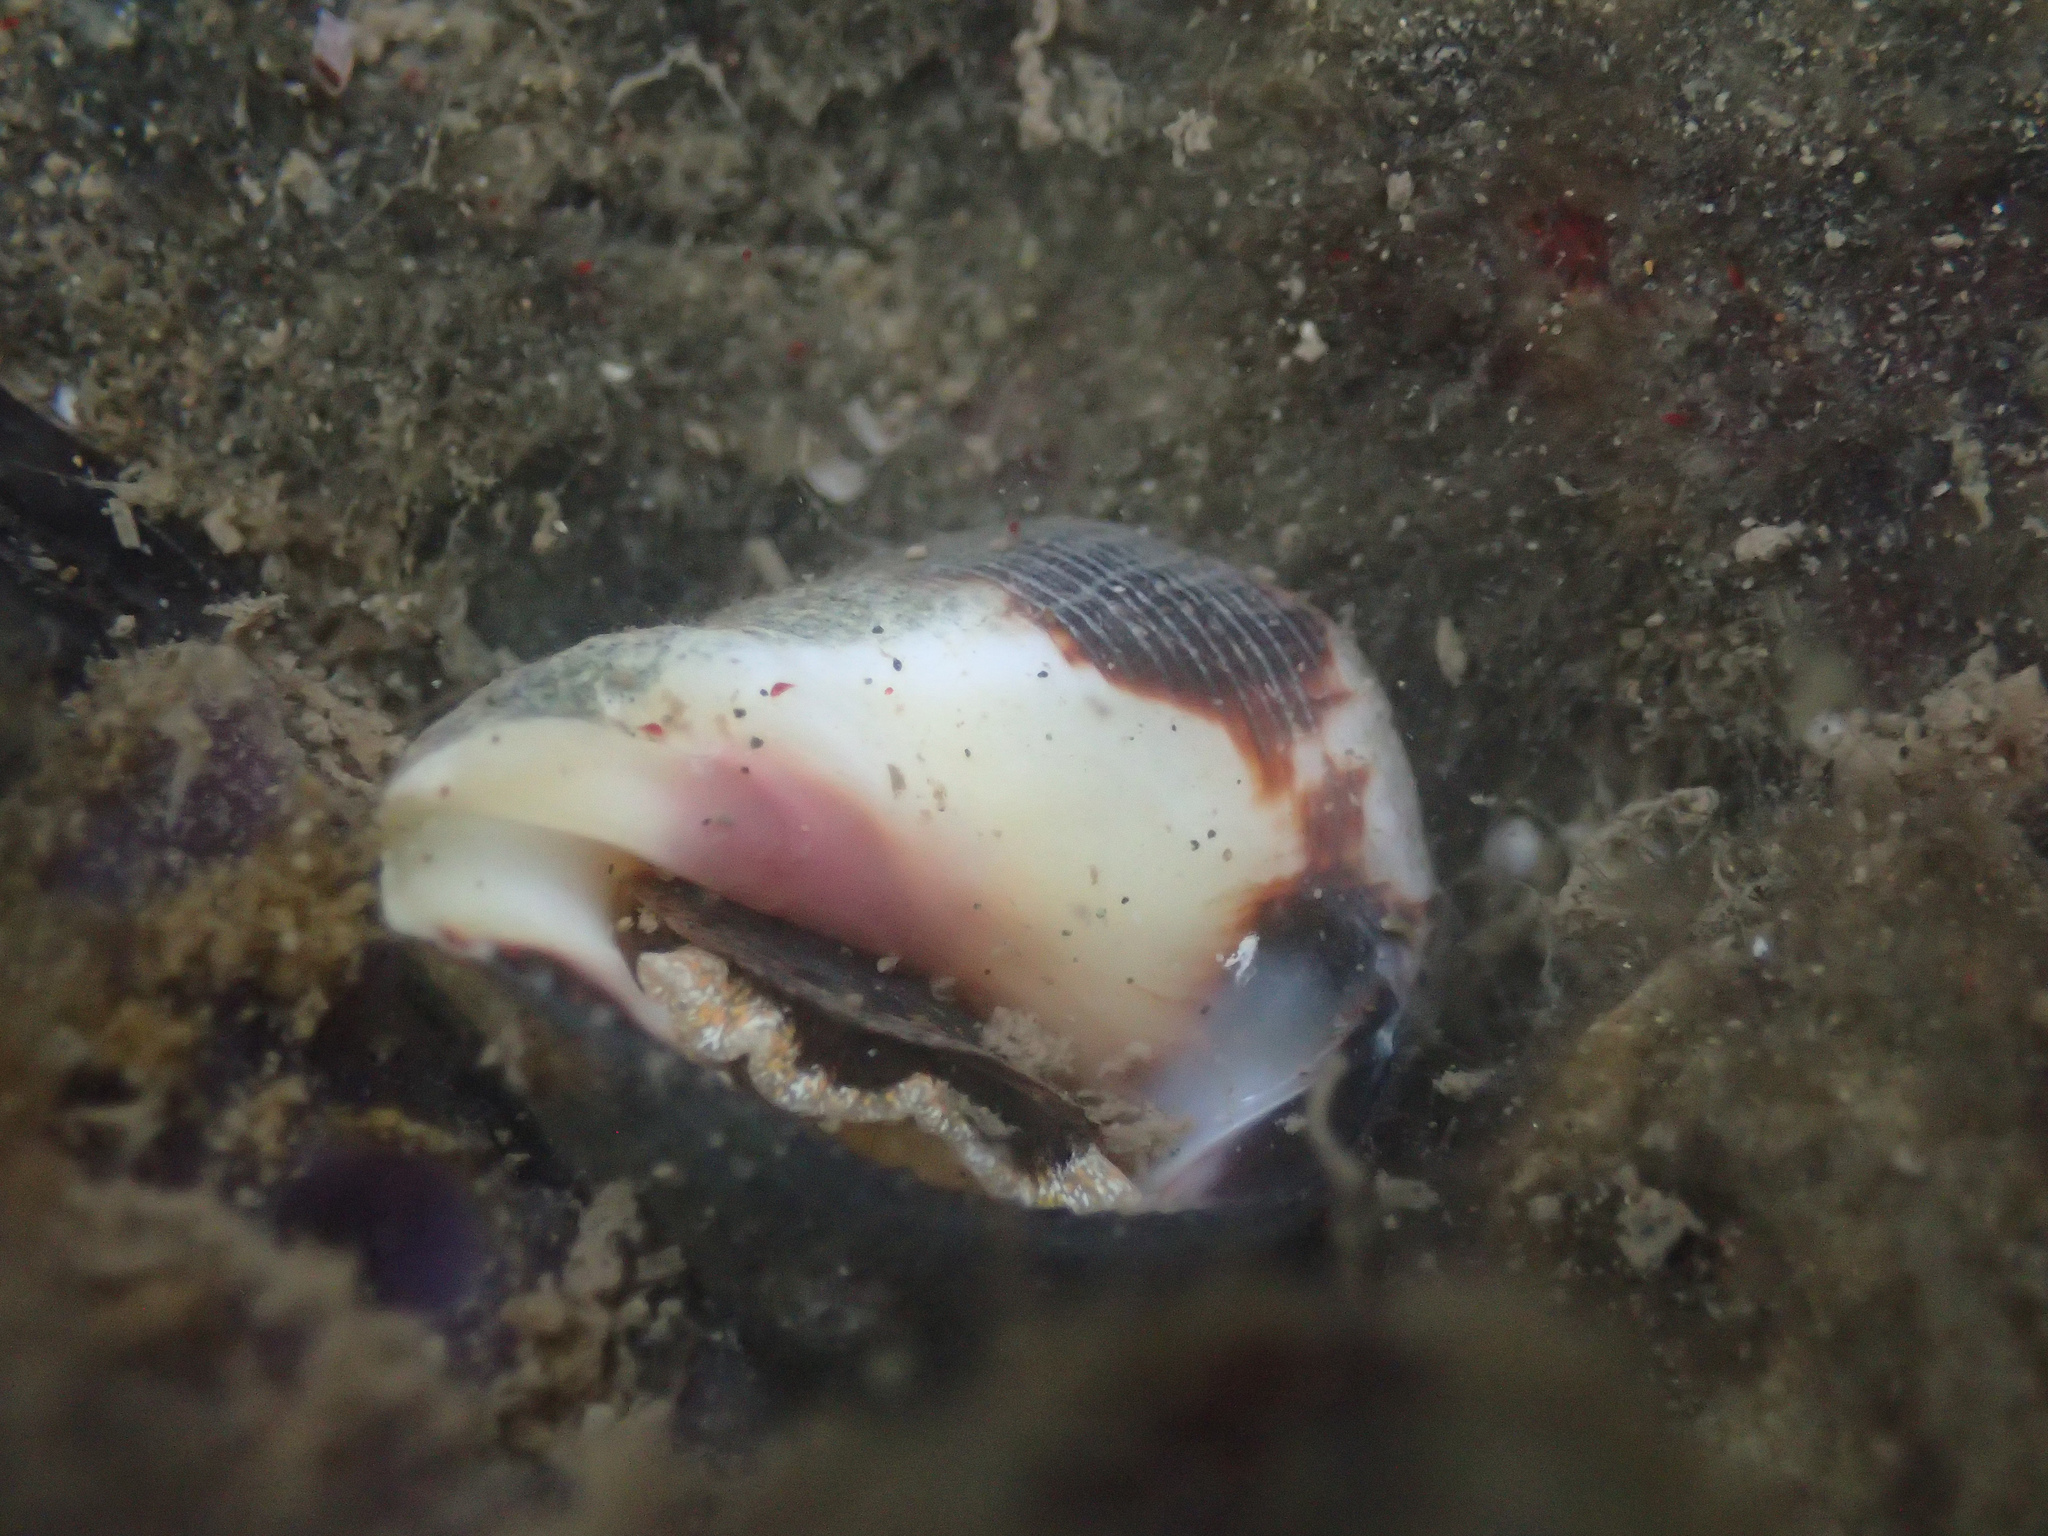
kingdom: Animalia
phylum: Mollusca
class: Gastropoda
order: Neogastropoda
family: Muricidae
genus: Vasula
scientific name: Vasula melones
